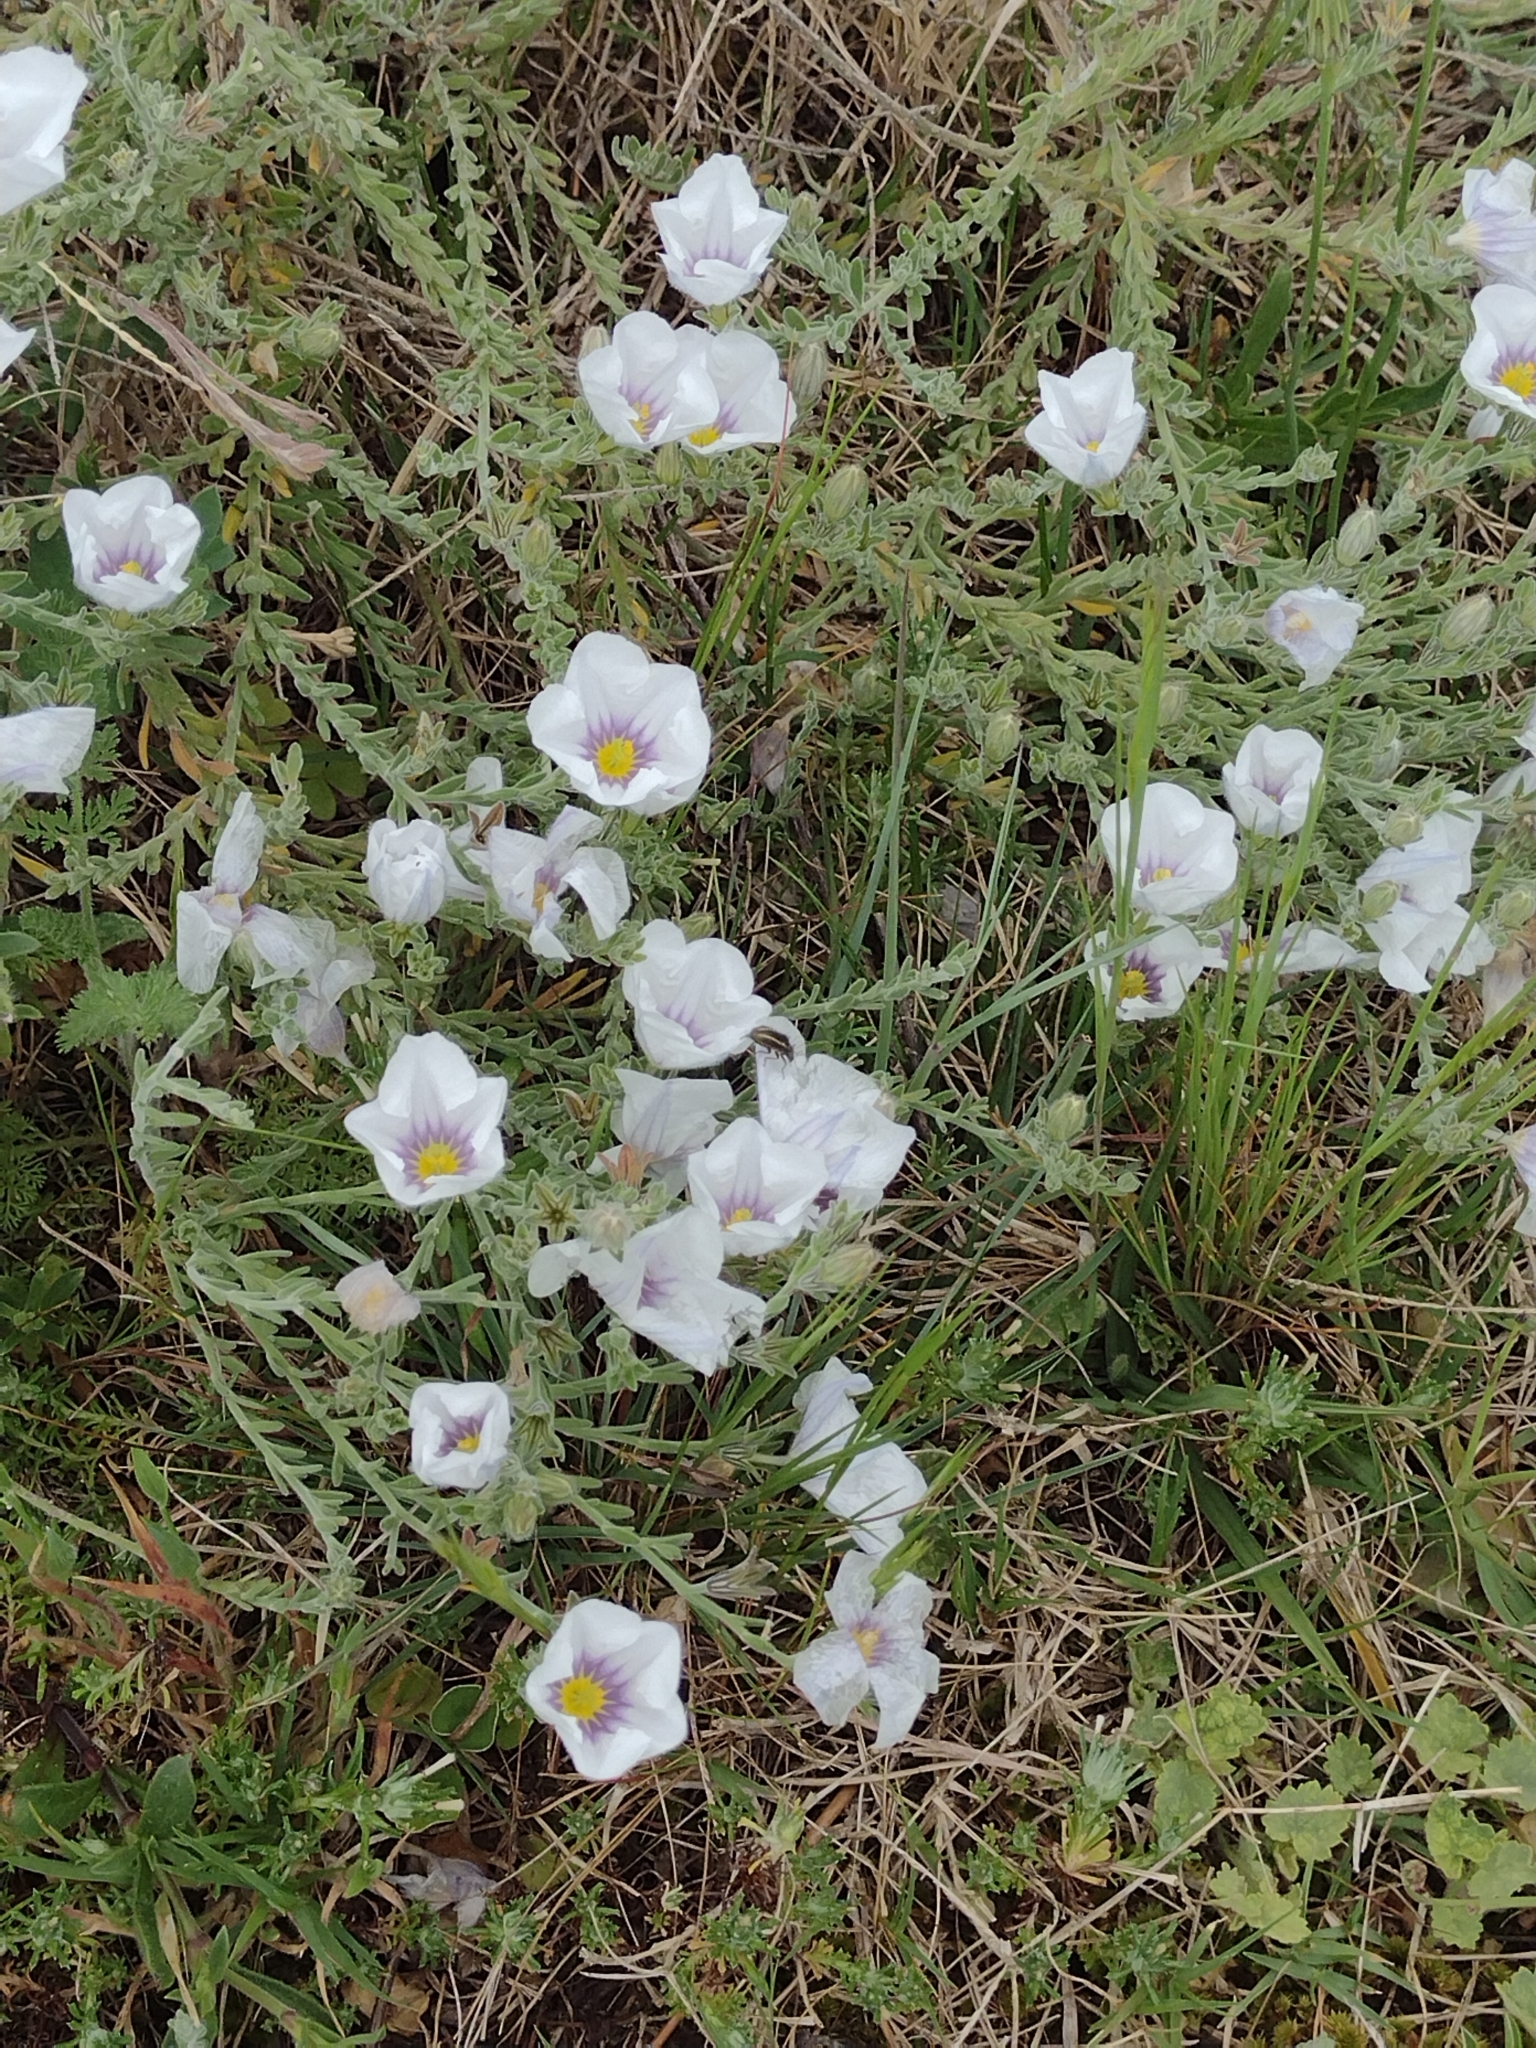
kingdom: Plantae
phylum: Tracheophyta
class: Magnoliopsida
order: Solanales
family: Solanaceae
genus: Nierembergia
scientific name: Nierembergia ericoides
